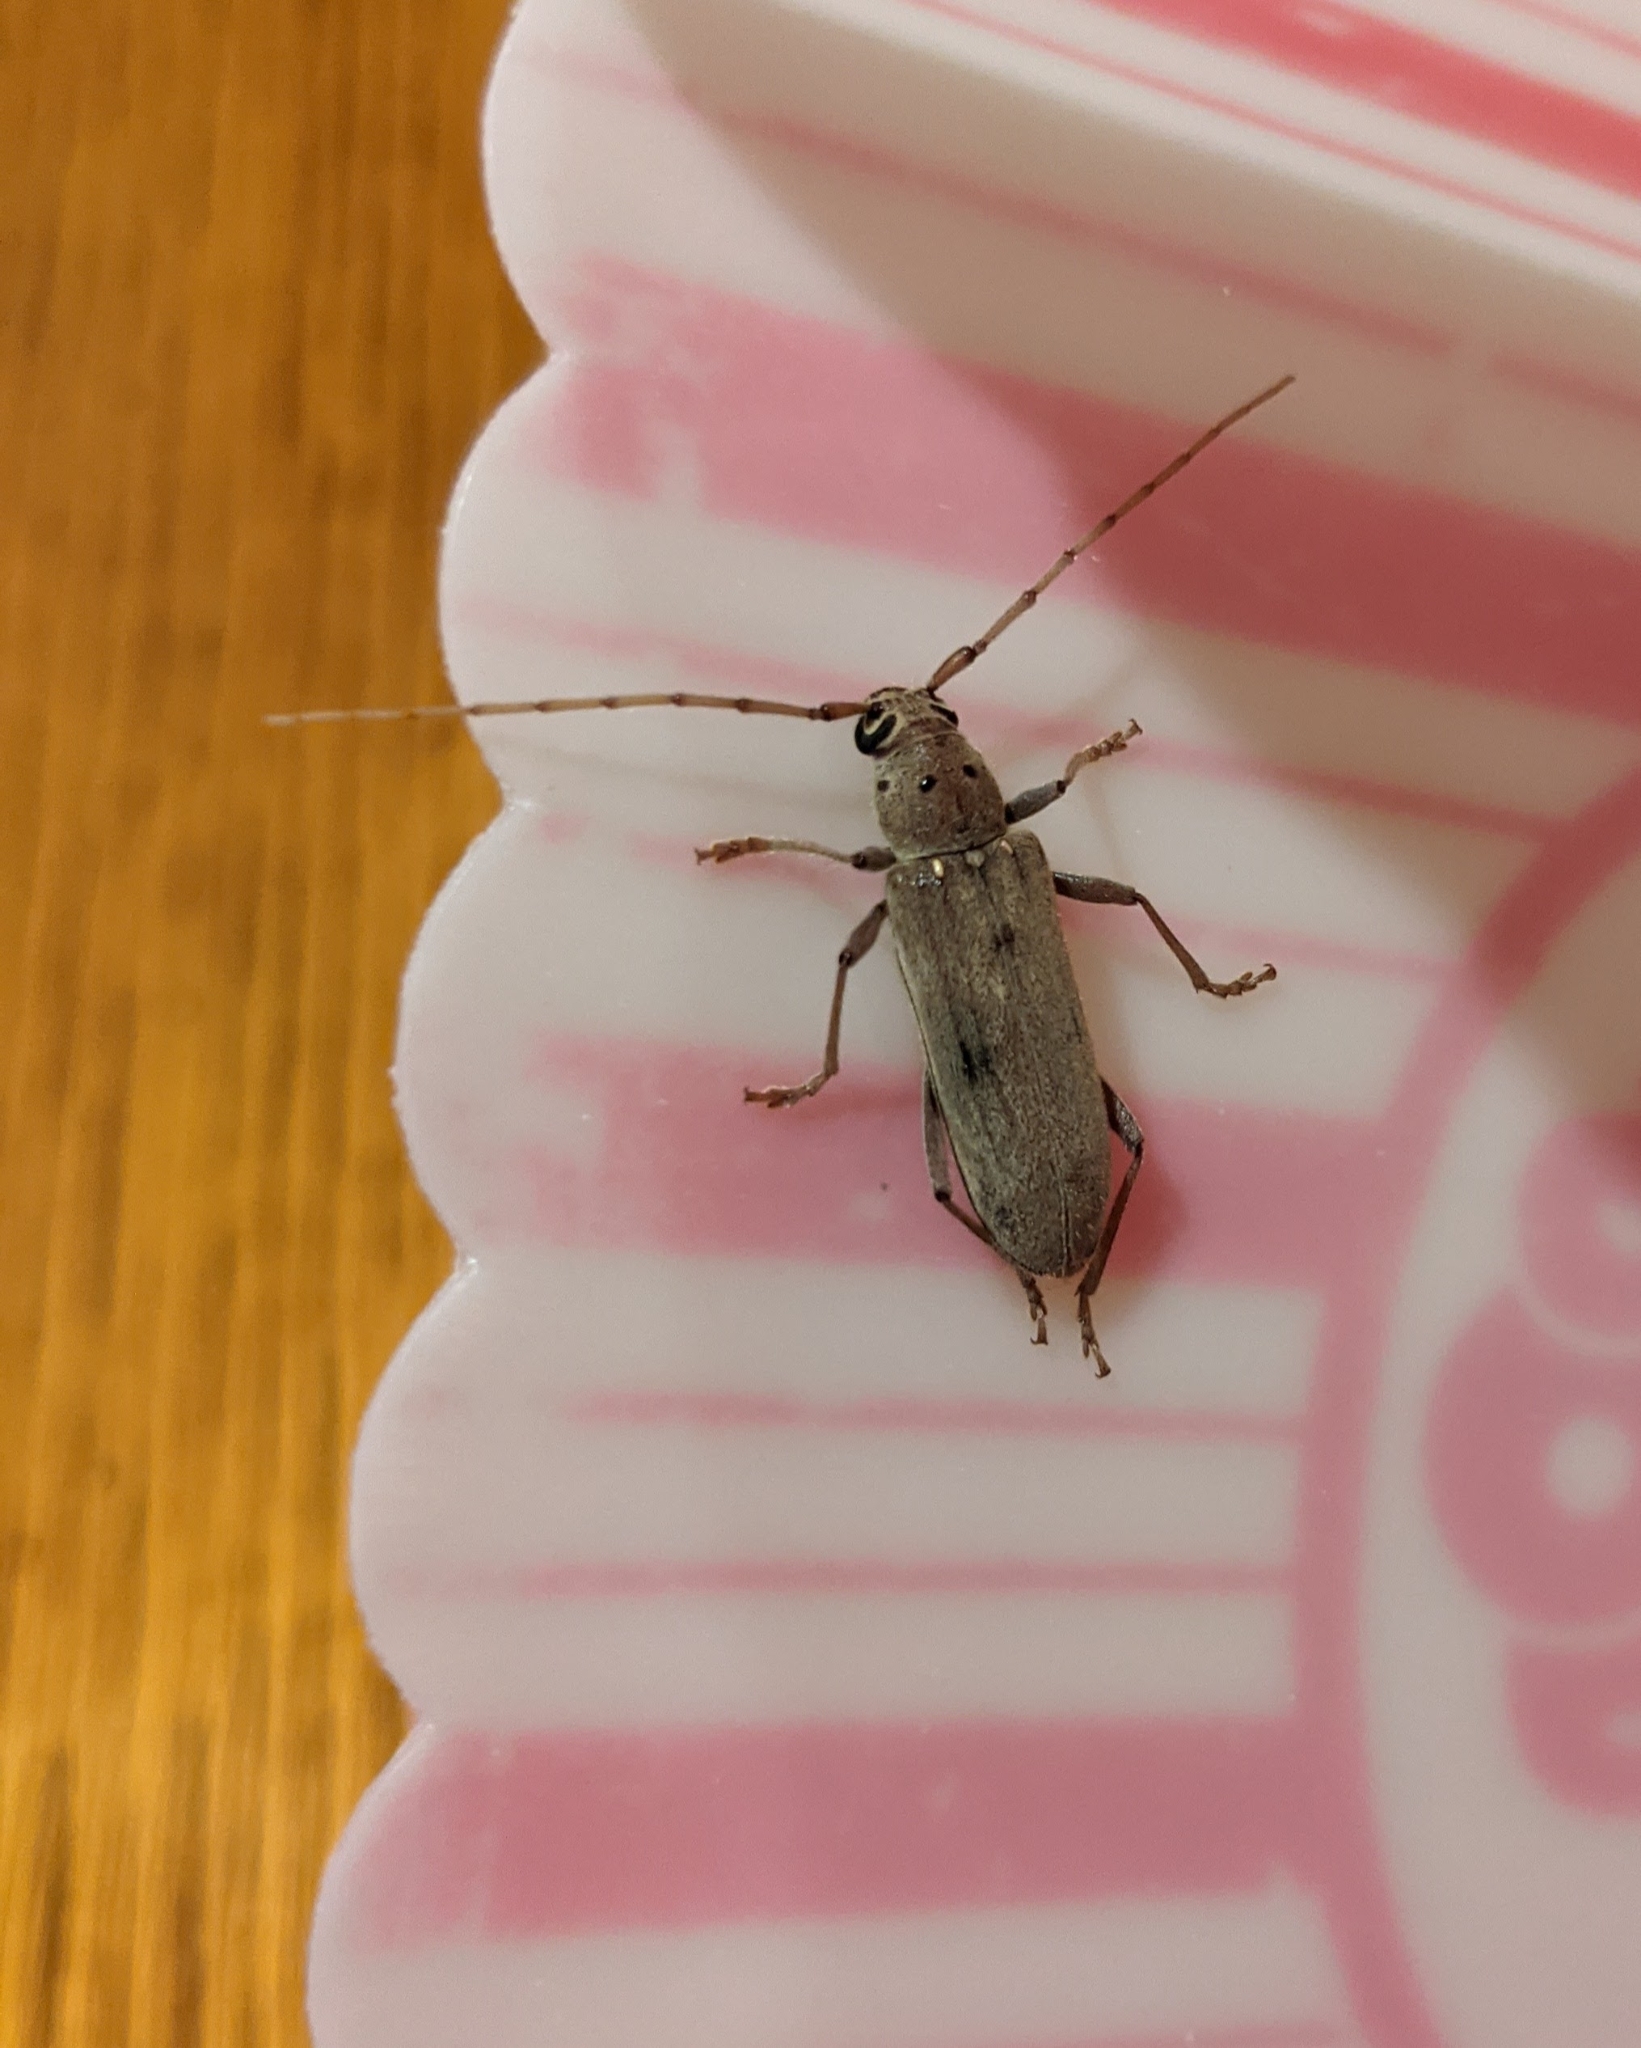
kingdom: Animalia
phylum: Arthropoda
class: Insecta
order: Coleoptera
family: Cerambycidae
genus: Eburia
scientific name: Eburia mutica
